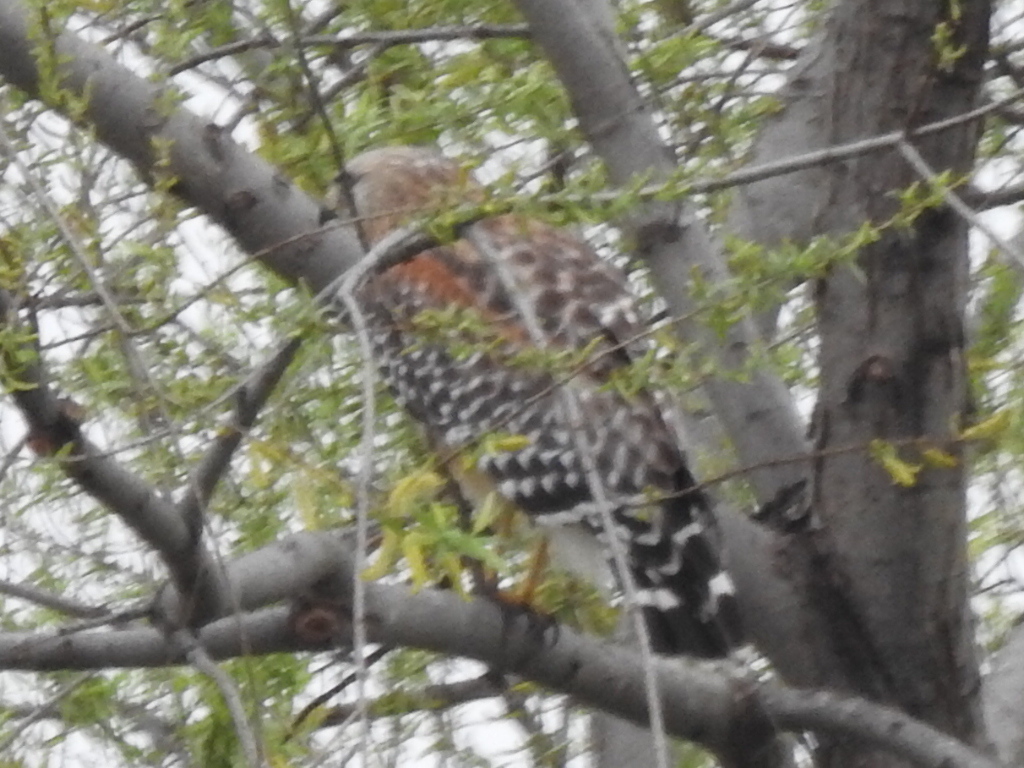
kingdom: Animalia
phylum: Chordata
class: Aves
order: Accipitriformes
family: Accipitridae
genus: Buteo
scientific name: Buteo lineatus
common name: Red-shouldered hawk
